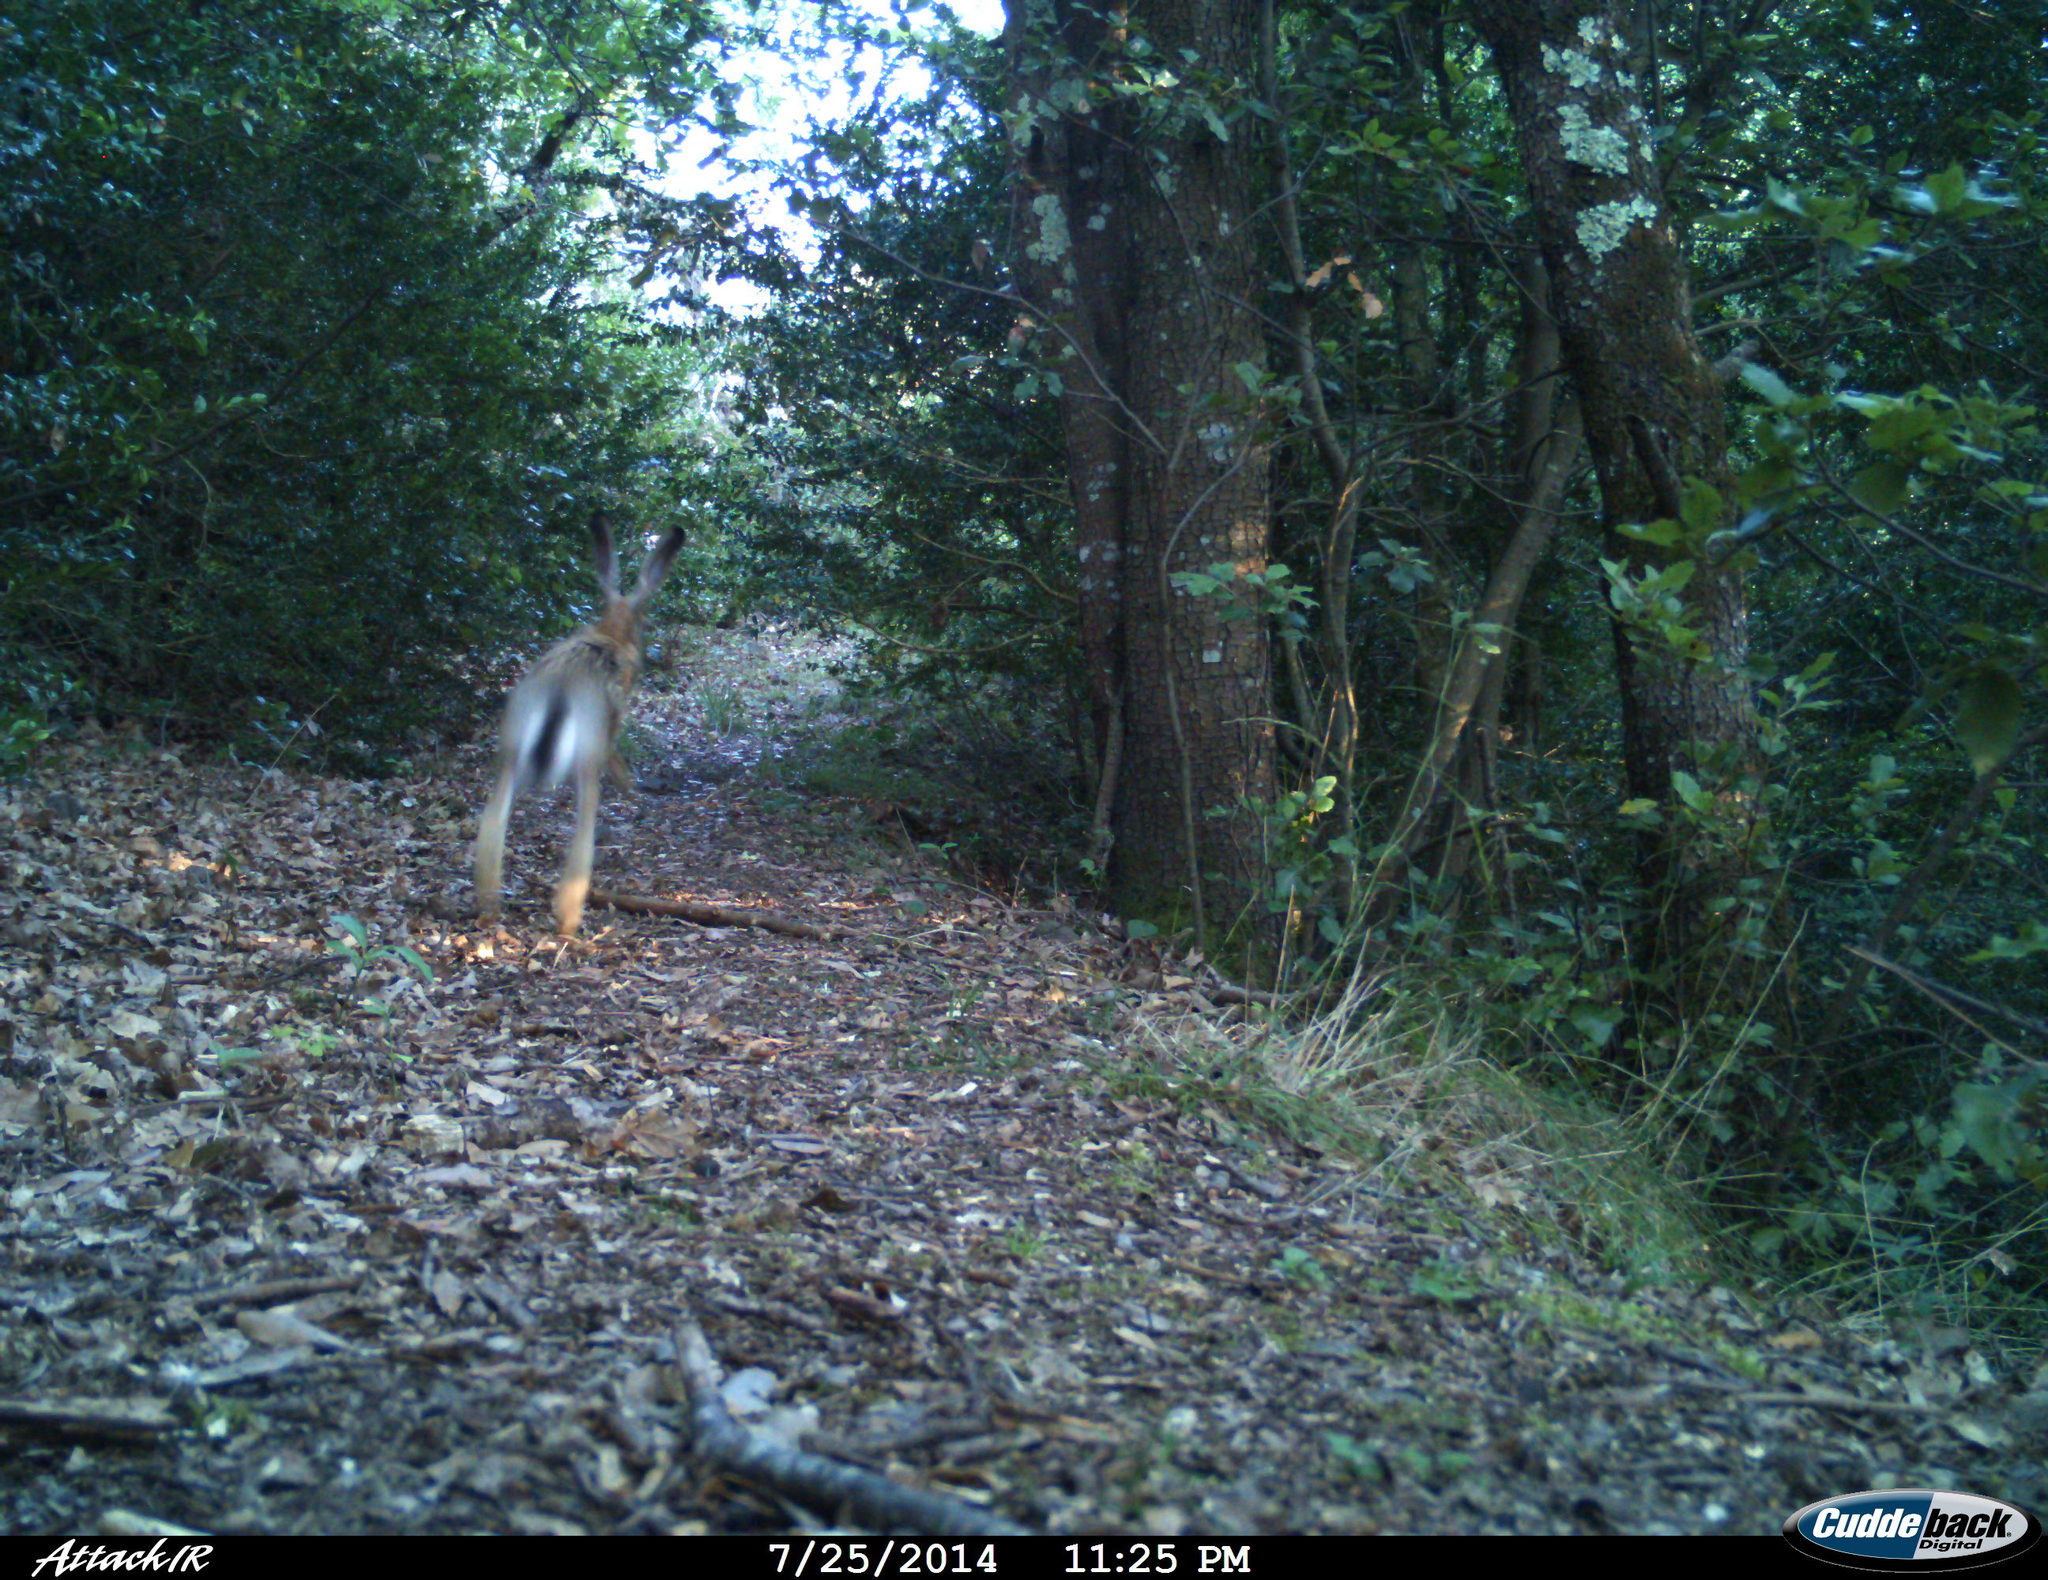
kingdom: Animalia
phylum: Chordata
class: Mammalia
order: Lagomorpha
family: Leporidae
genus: Lepus
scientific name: Lepus europaeus
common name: European hare
